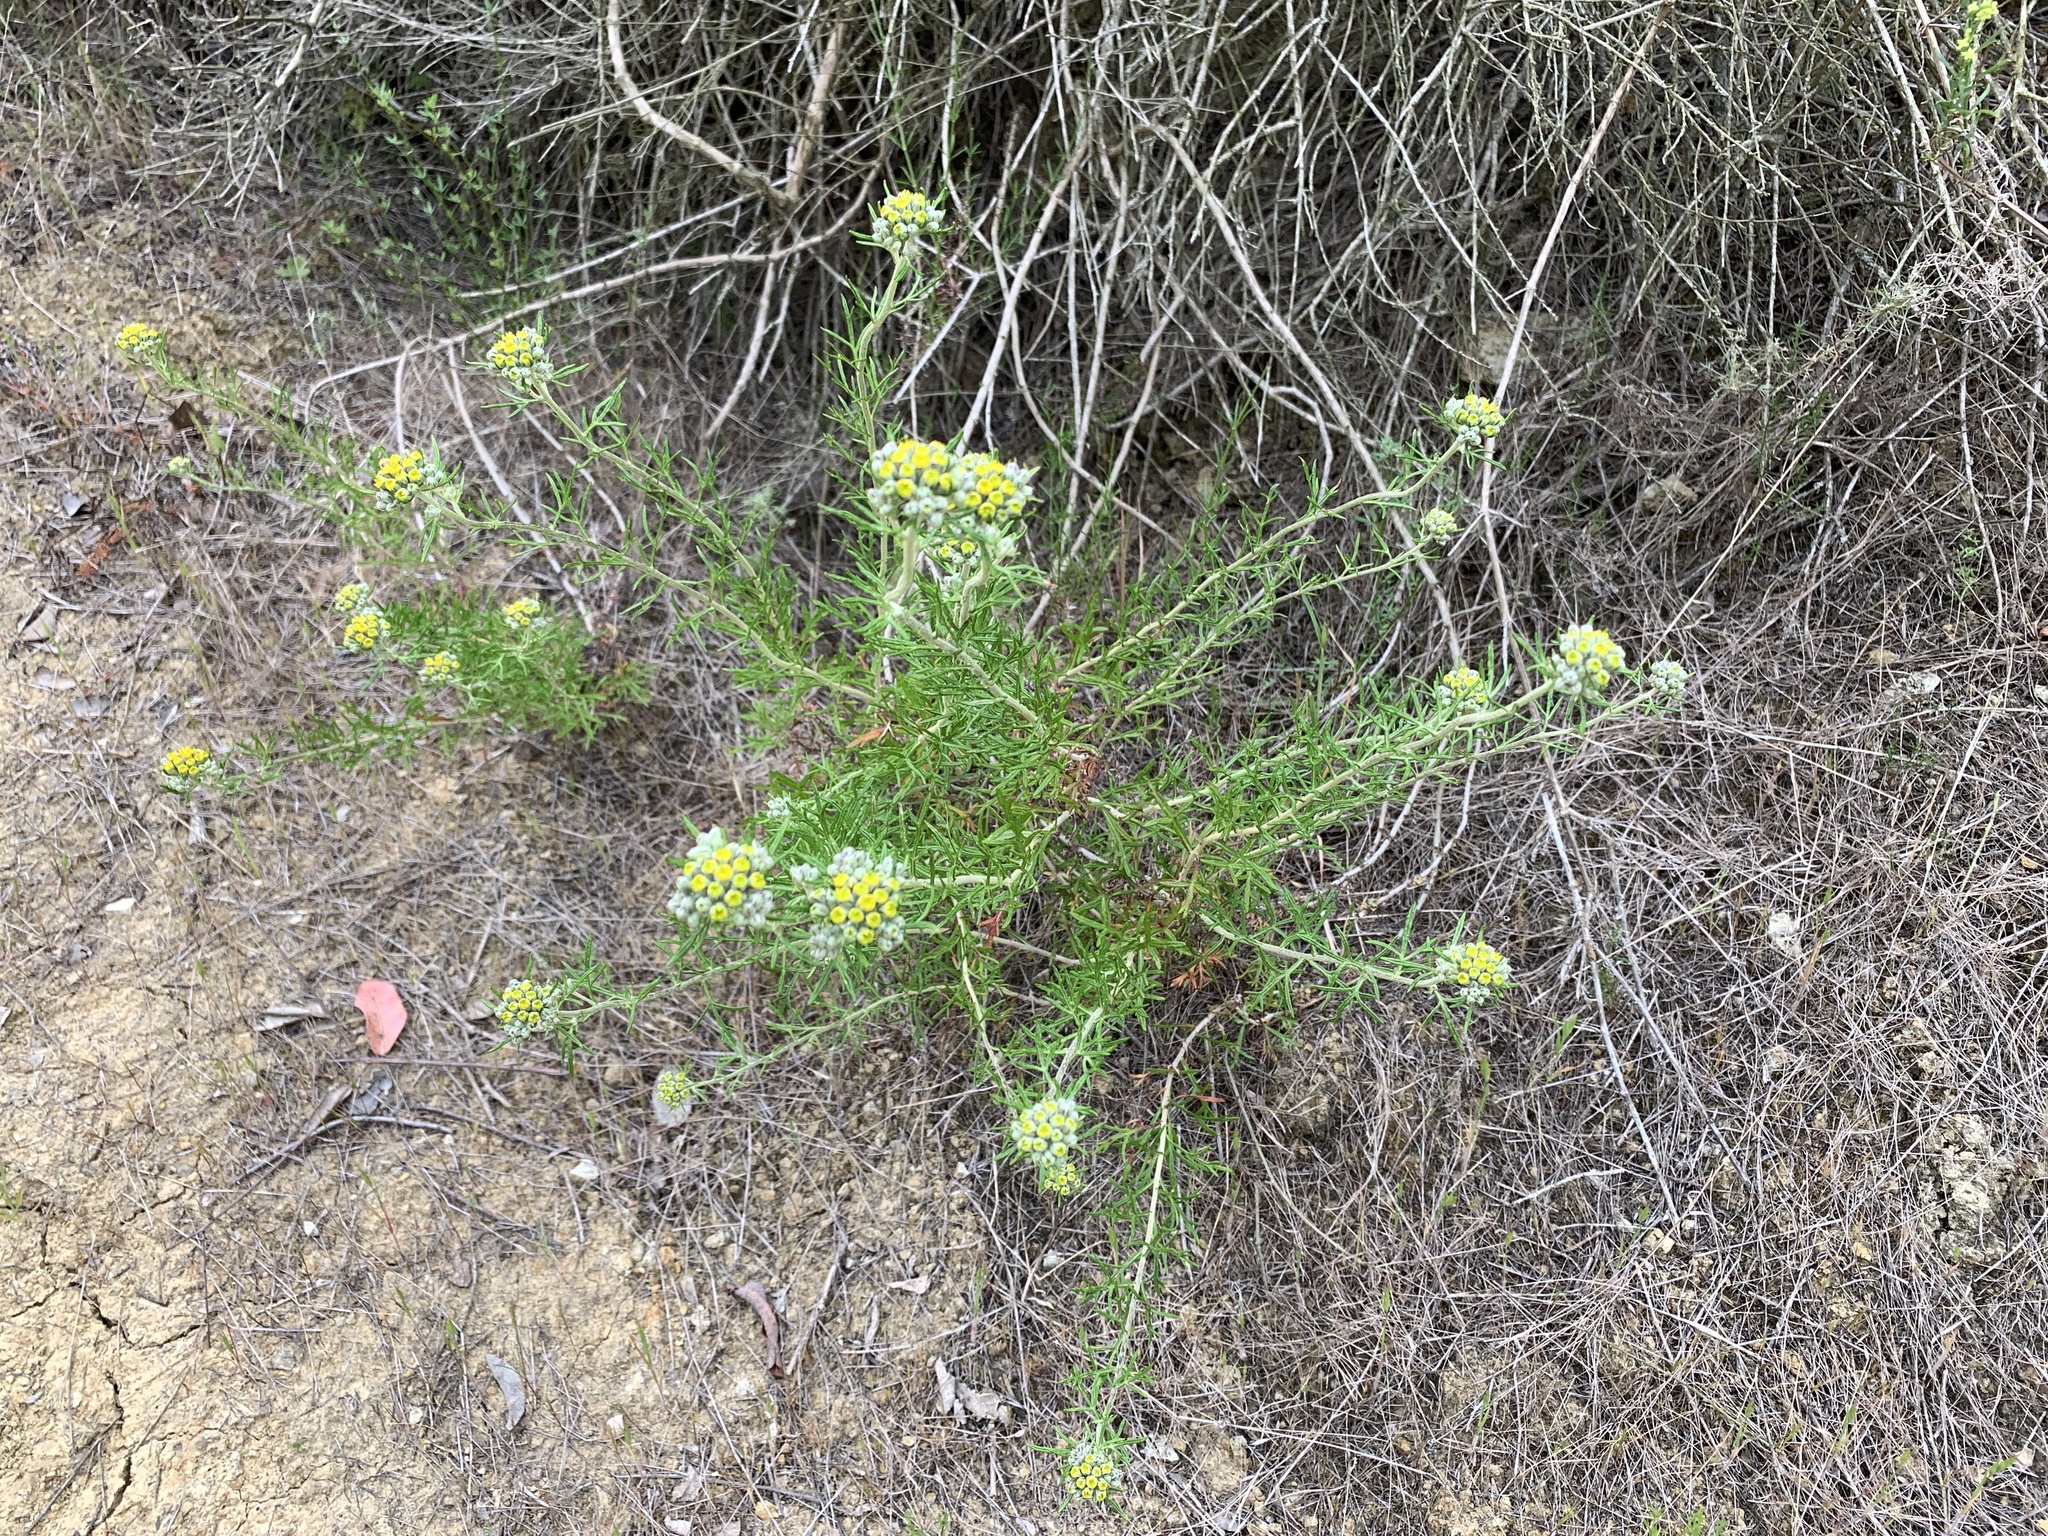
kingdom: Plantae
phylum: Tracheophyta
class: Magnoliopsida
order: Asterales
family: Asteraceae
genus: Eriophyllum
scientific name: Eriophyllum confertiflorum
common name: Golden-yarrow
